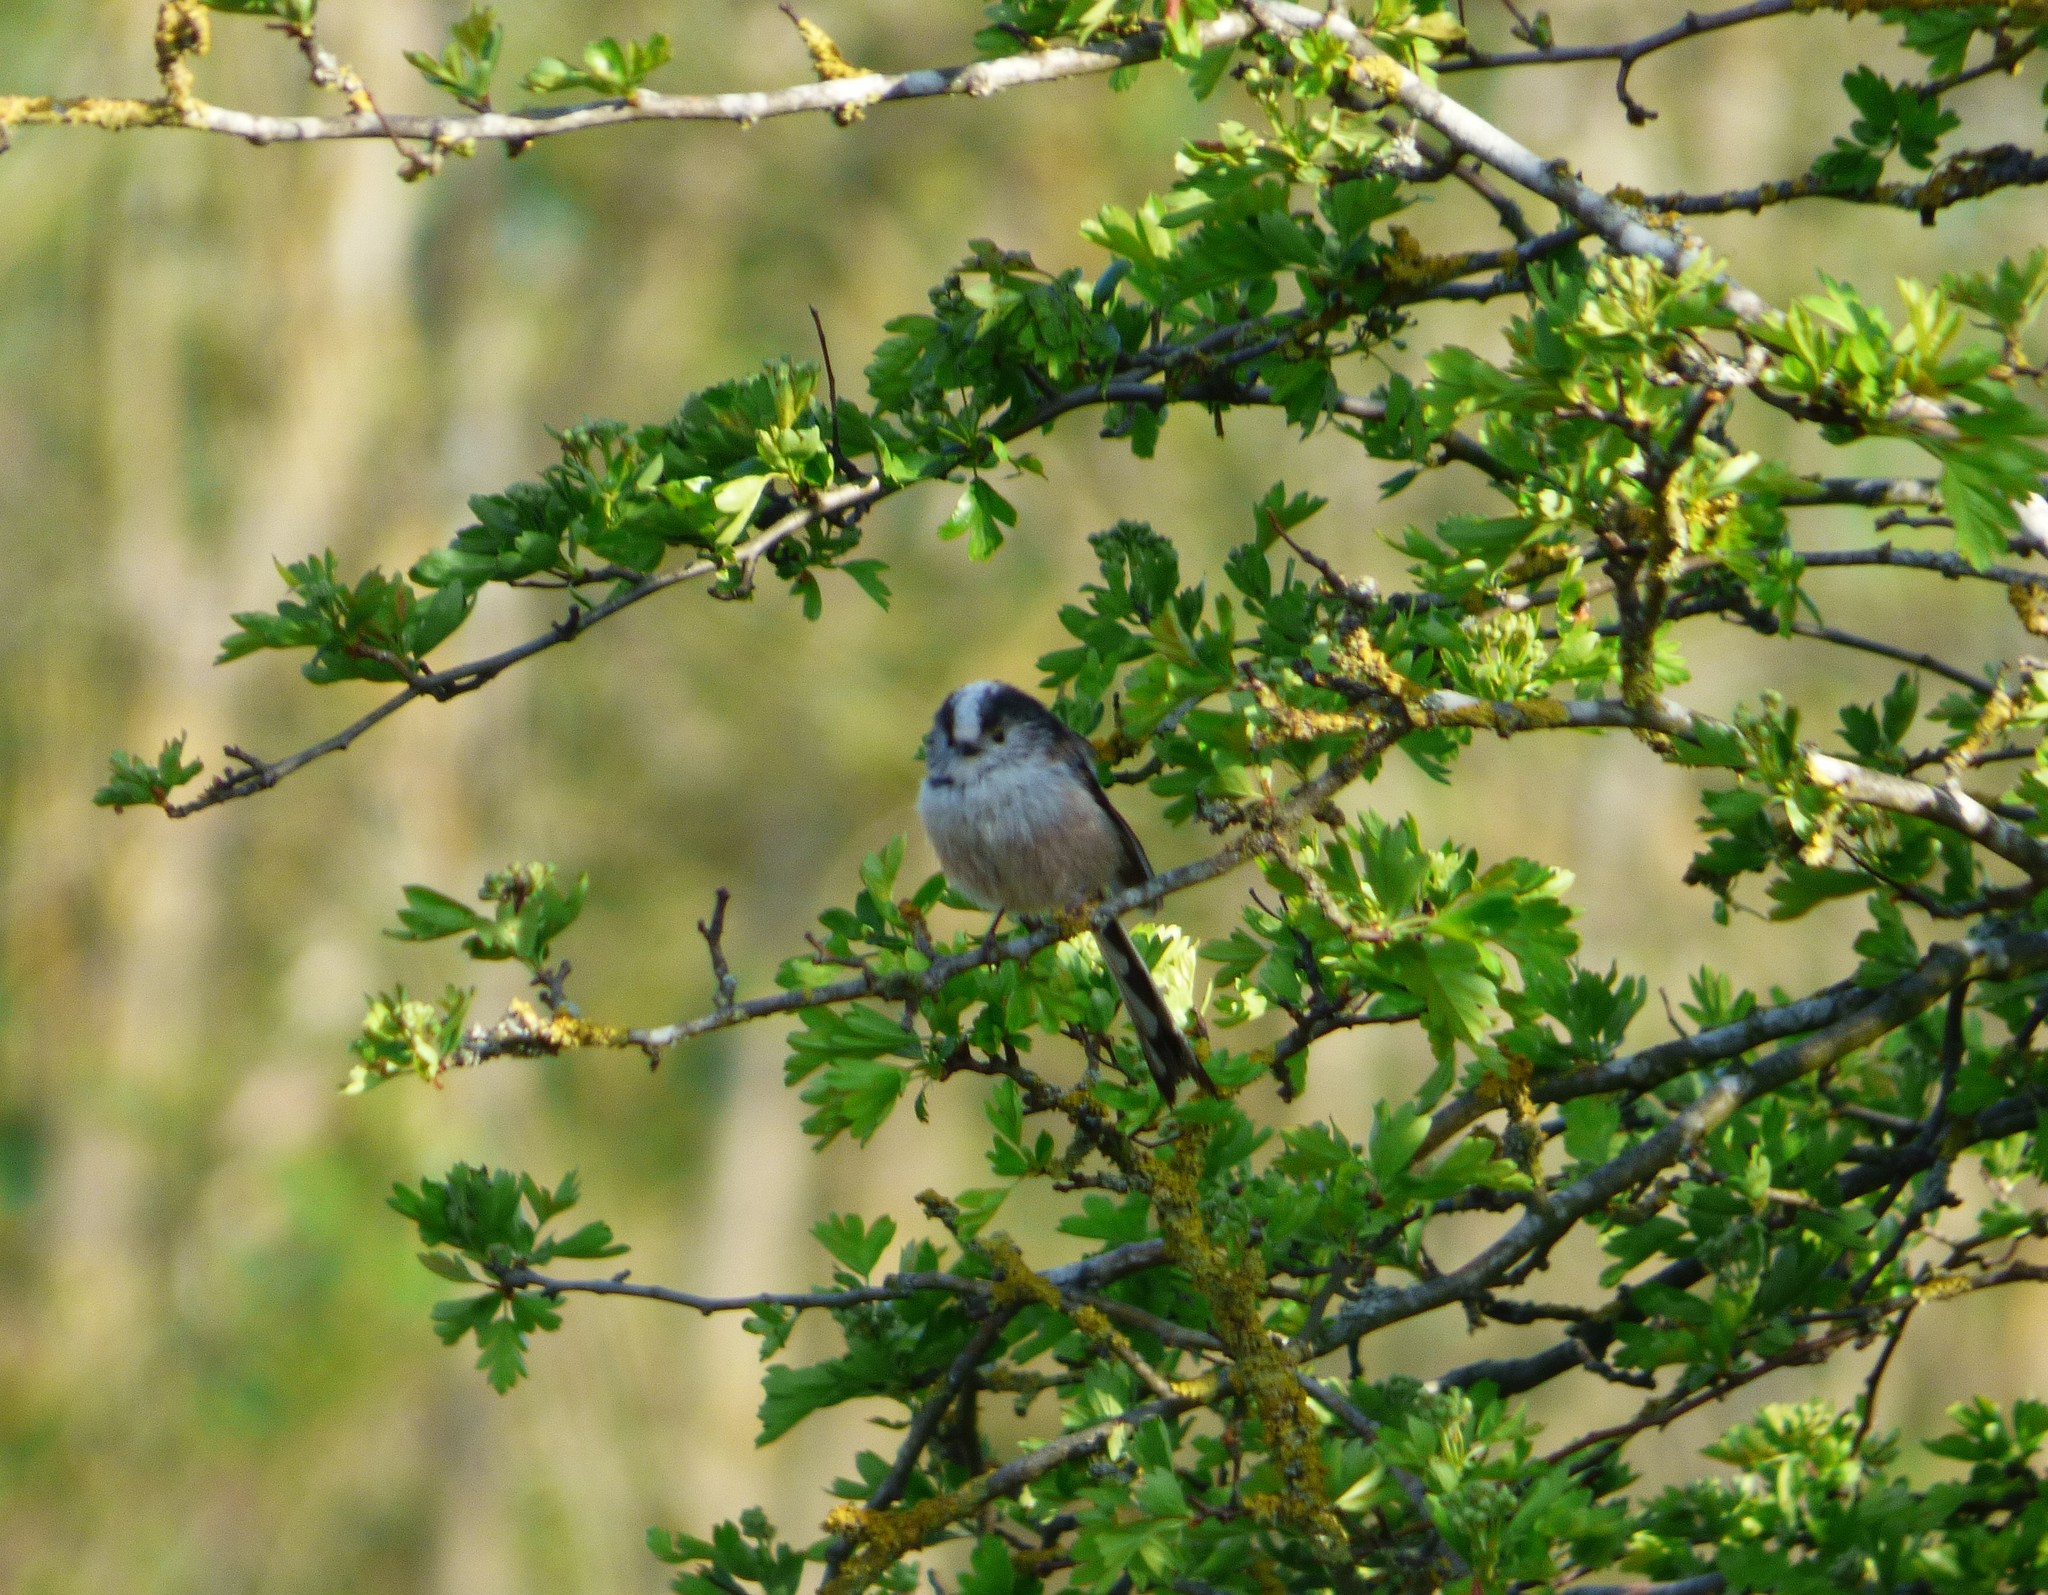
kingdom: Animalia
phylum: Chordata
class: Aves
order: Passeriformes
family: Aegithalidae
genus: Aegithalos
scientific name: Aegithalos caudatus
